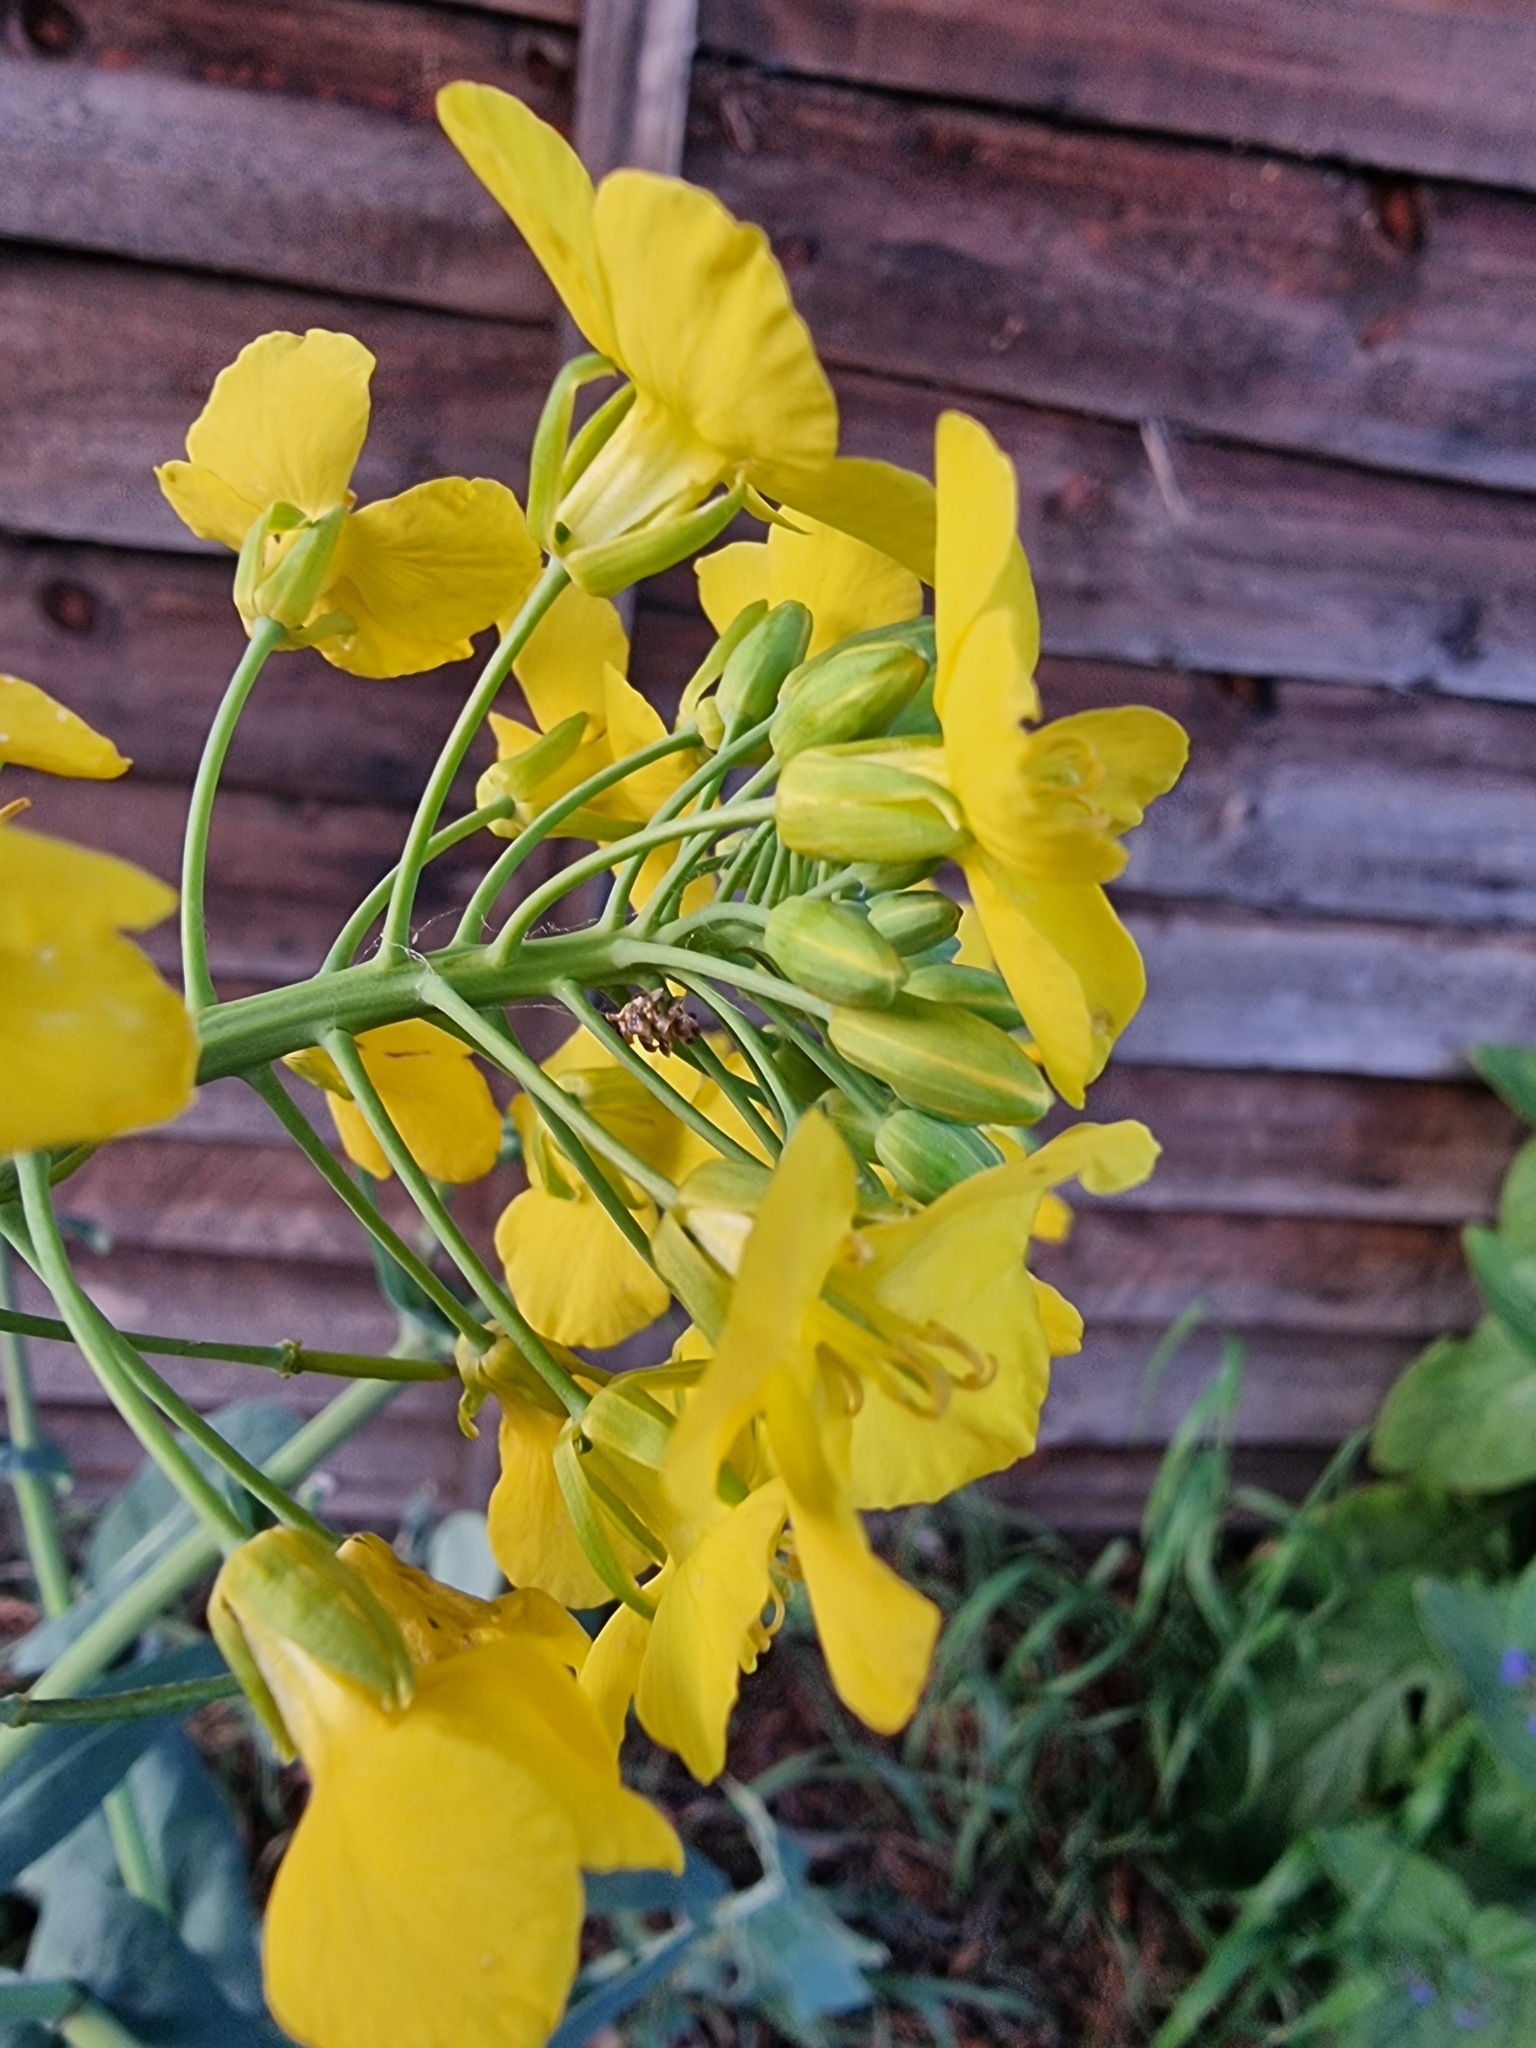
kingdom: Plantae
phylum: Tracheophyta
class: Magnoliopsida
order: Brassicales
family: Brassicaceae
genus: Brassica
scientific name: Brassica napus
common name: Rape
